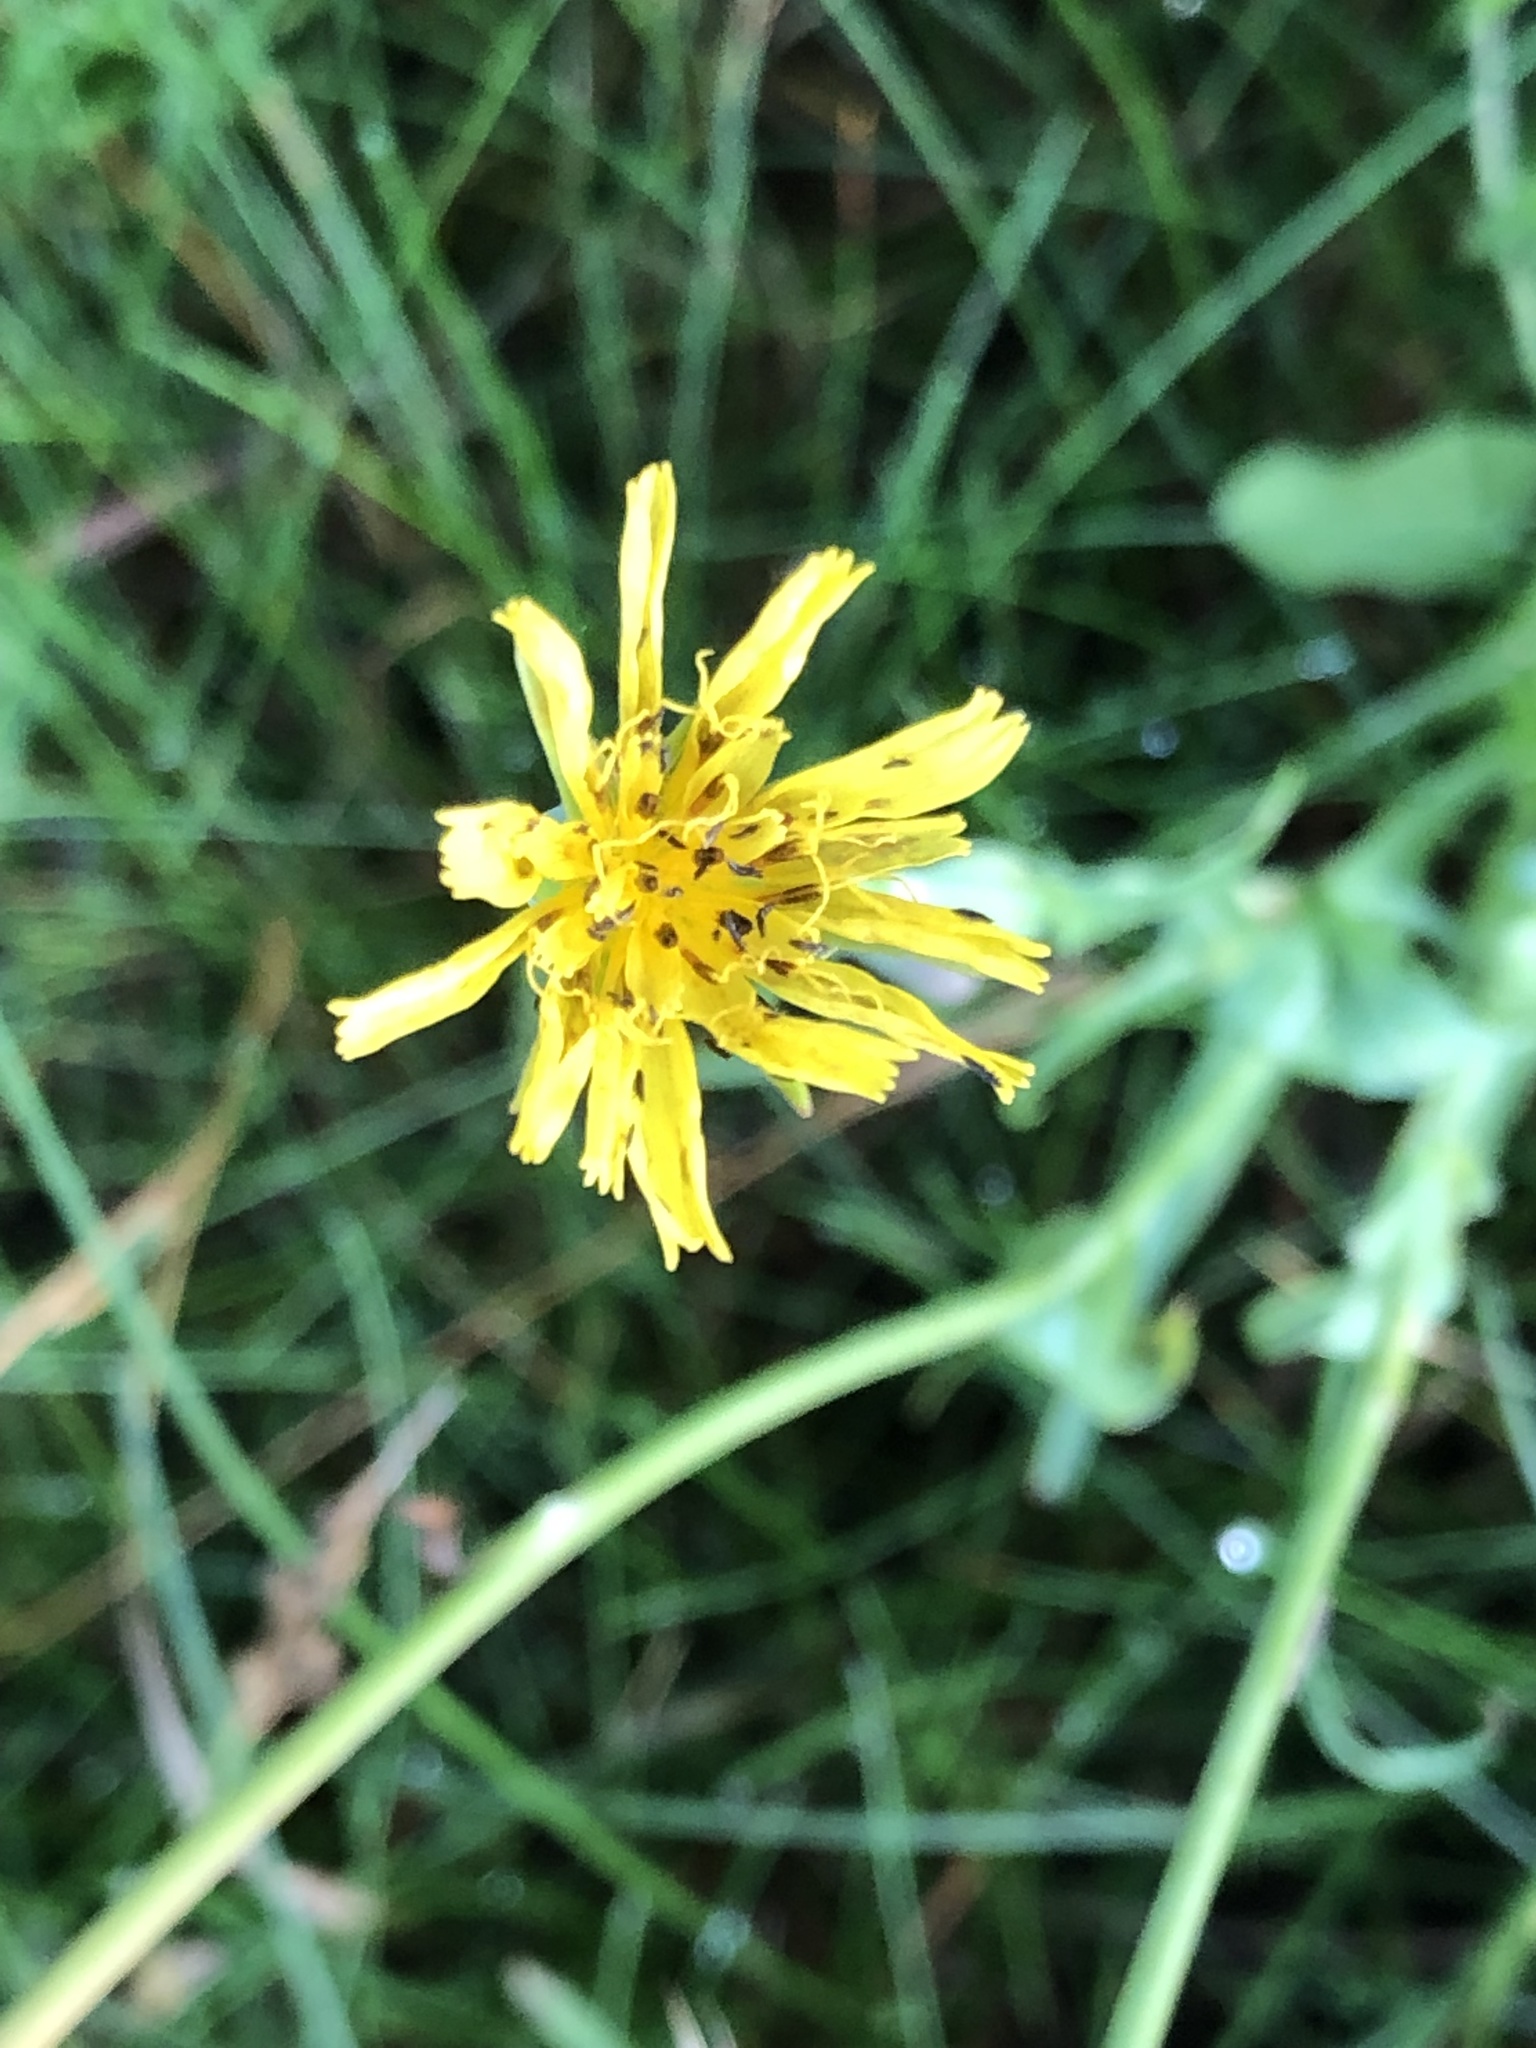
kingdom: Plantae
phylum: Tracheophyta
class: Magnoliopsida
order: Asterales
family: Asteraceae
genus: Tragopogon
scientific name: Tragopogon pratensis
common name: Goat's-beard
